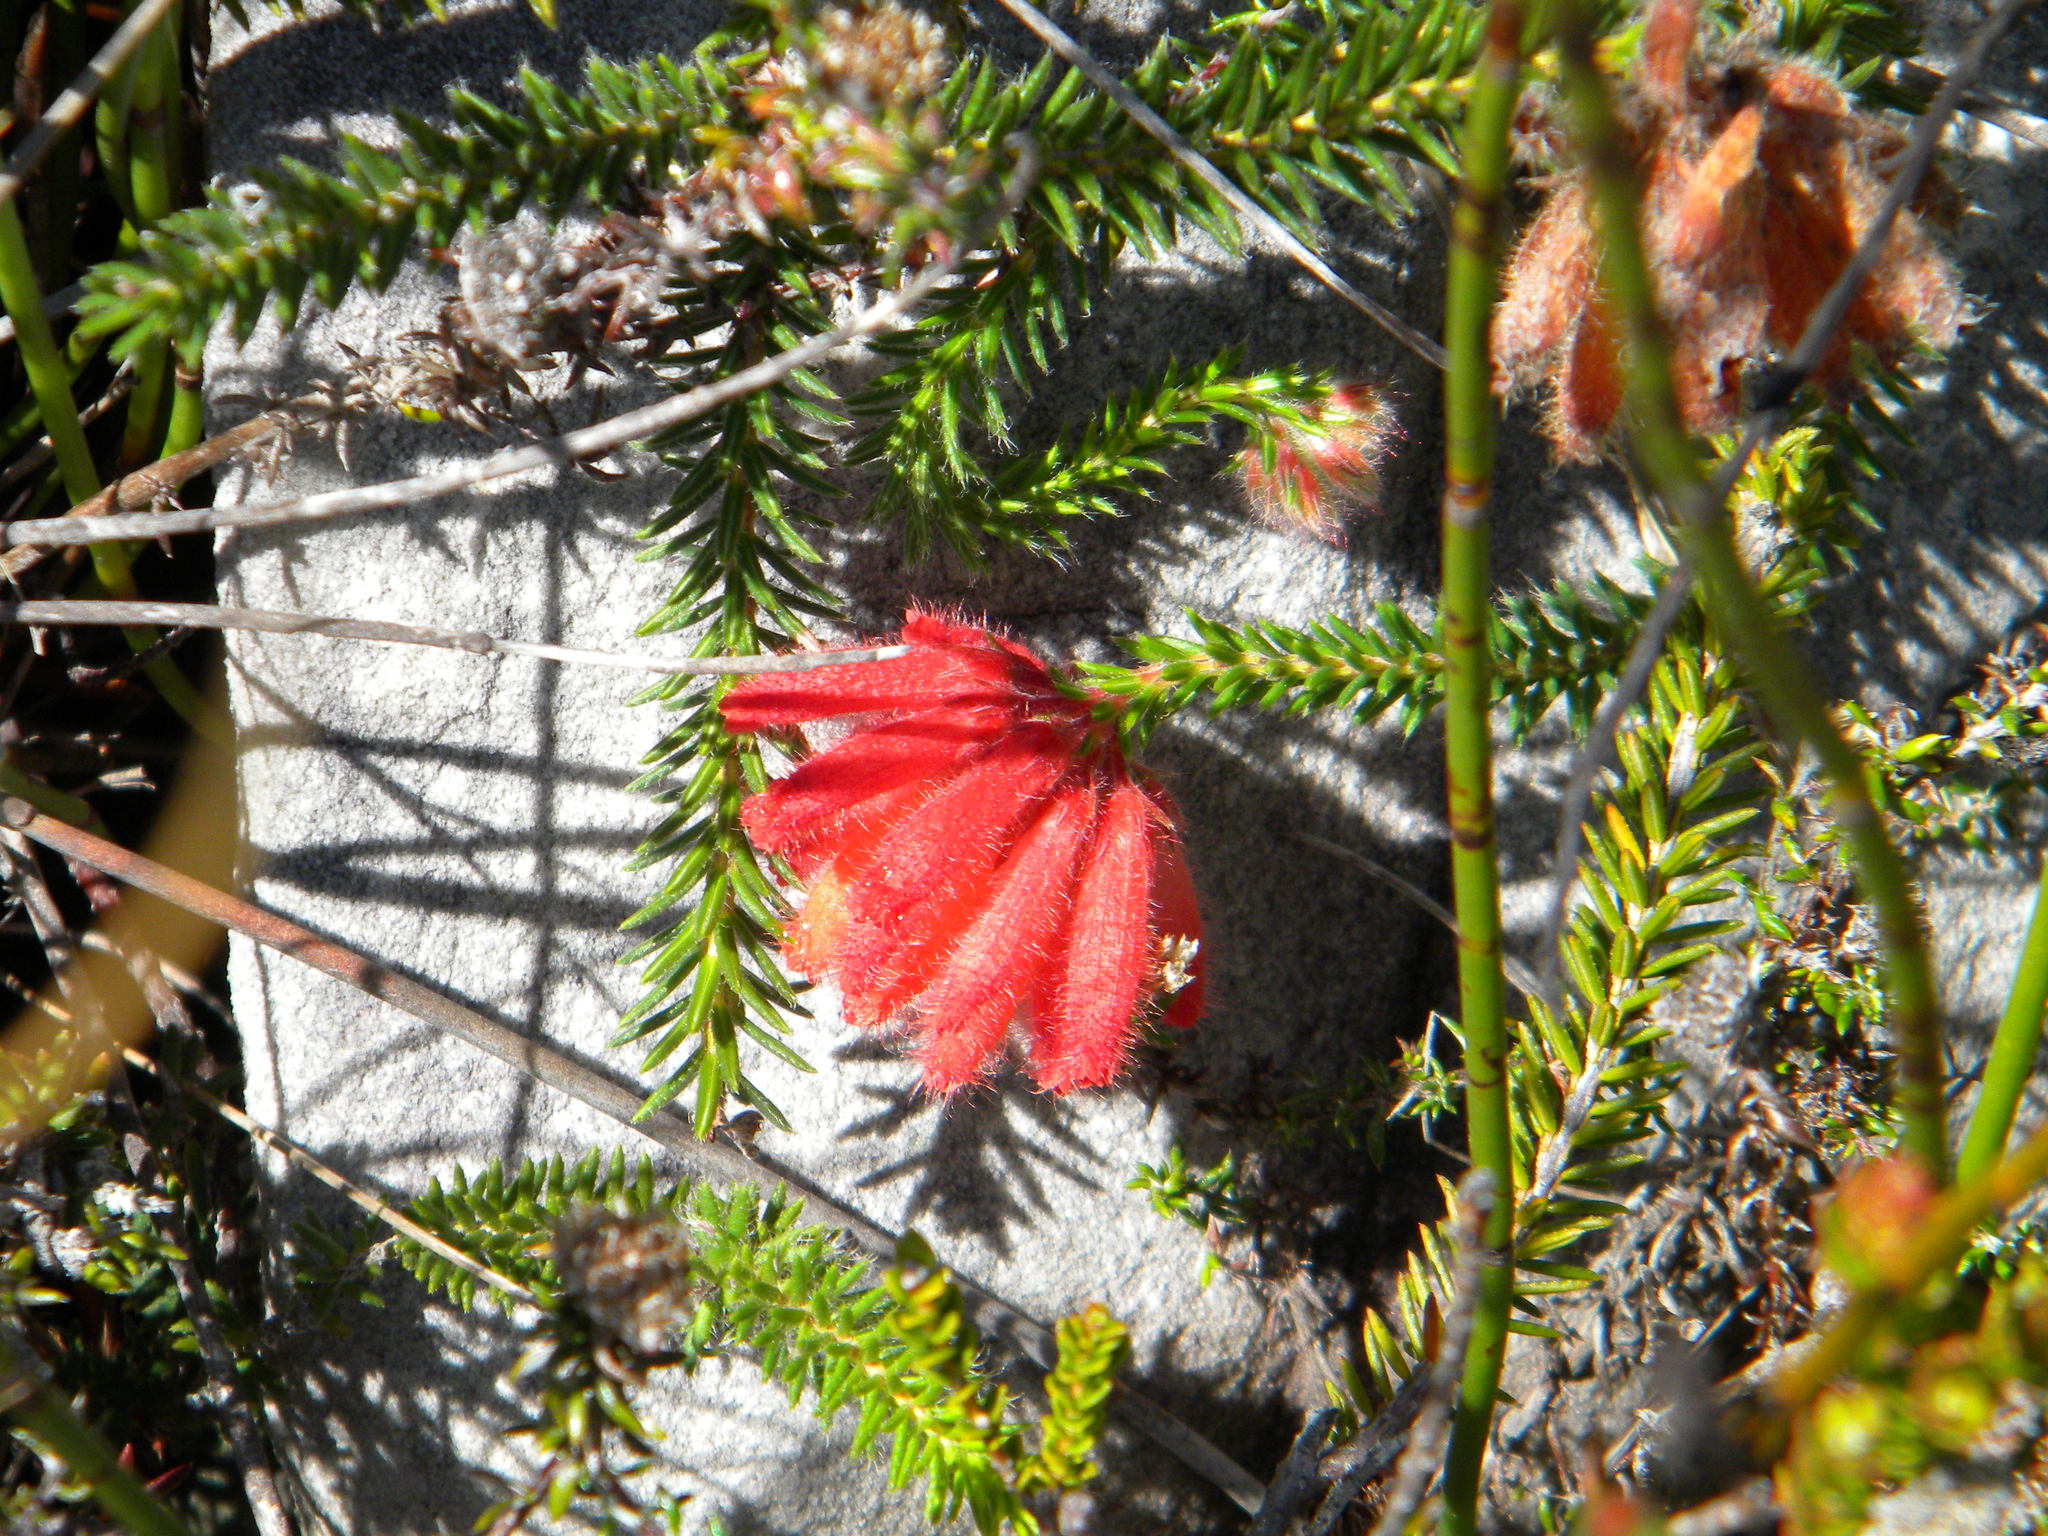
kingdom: Plantae
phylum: Tracheophyta
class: Magnoliopsida
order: Ericales
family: Ericaceae
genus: Erica
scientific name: Erica cerinthoides
